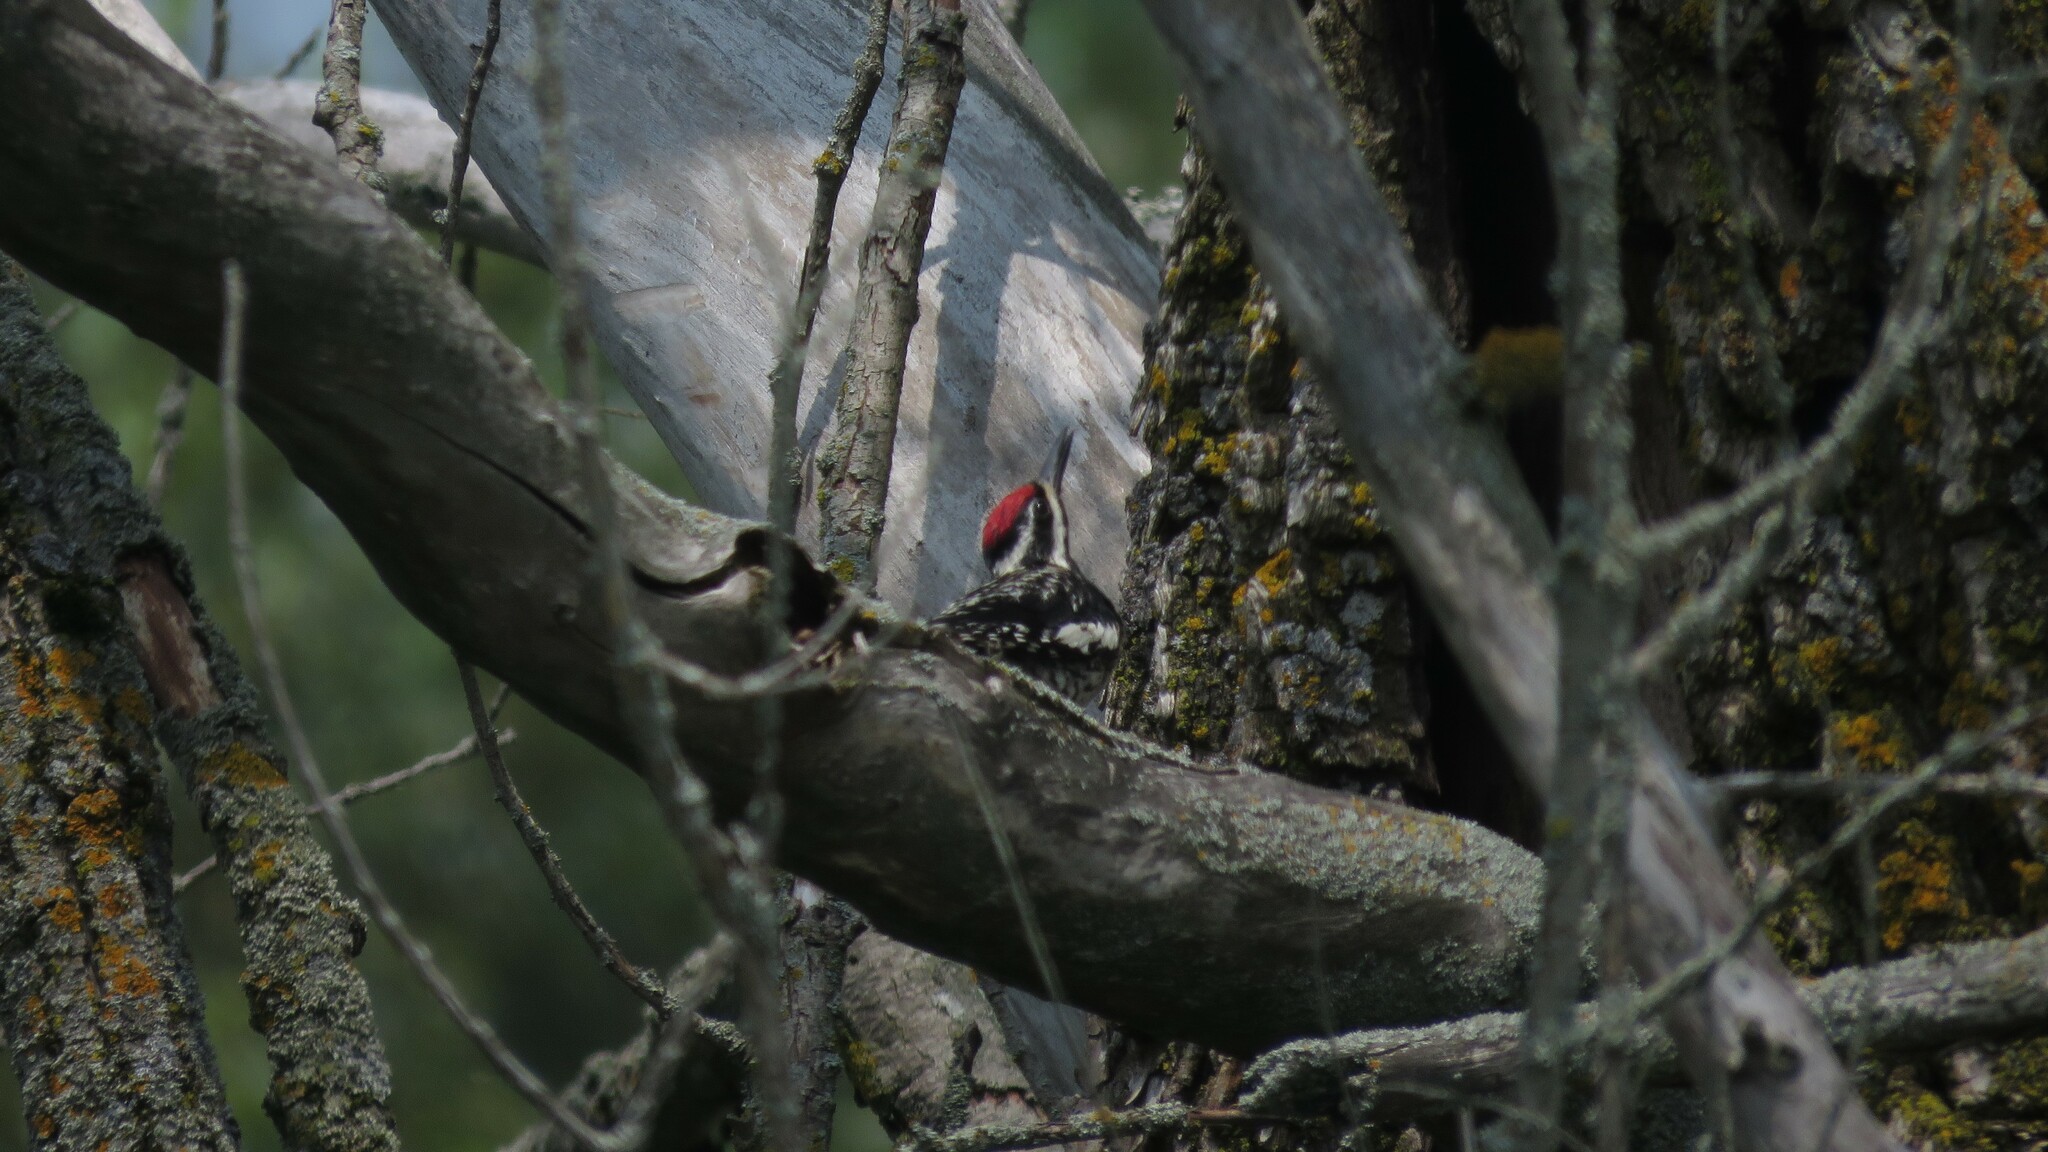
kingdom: Animalia
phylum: Chordata
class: Aves
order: Piciformes
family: Picidae
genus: Sphyrapicus
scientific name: Sphyrapicus varius
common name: Yellow-bellied sapsucker
